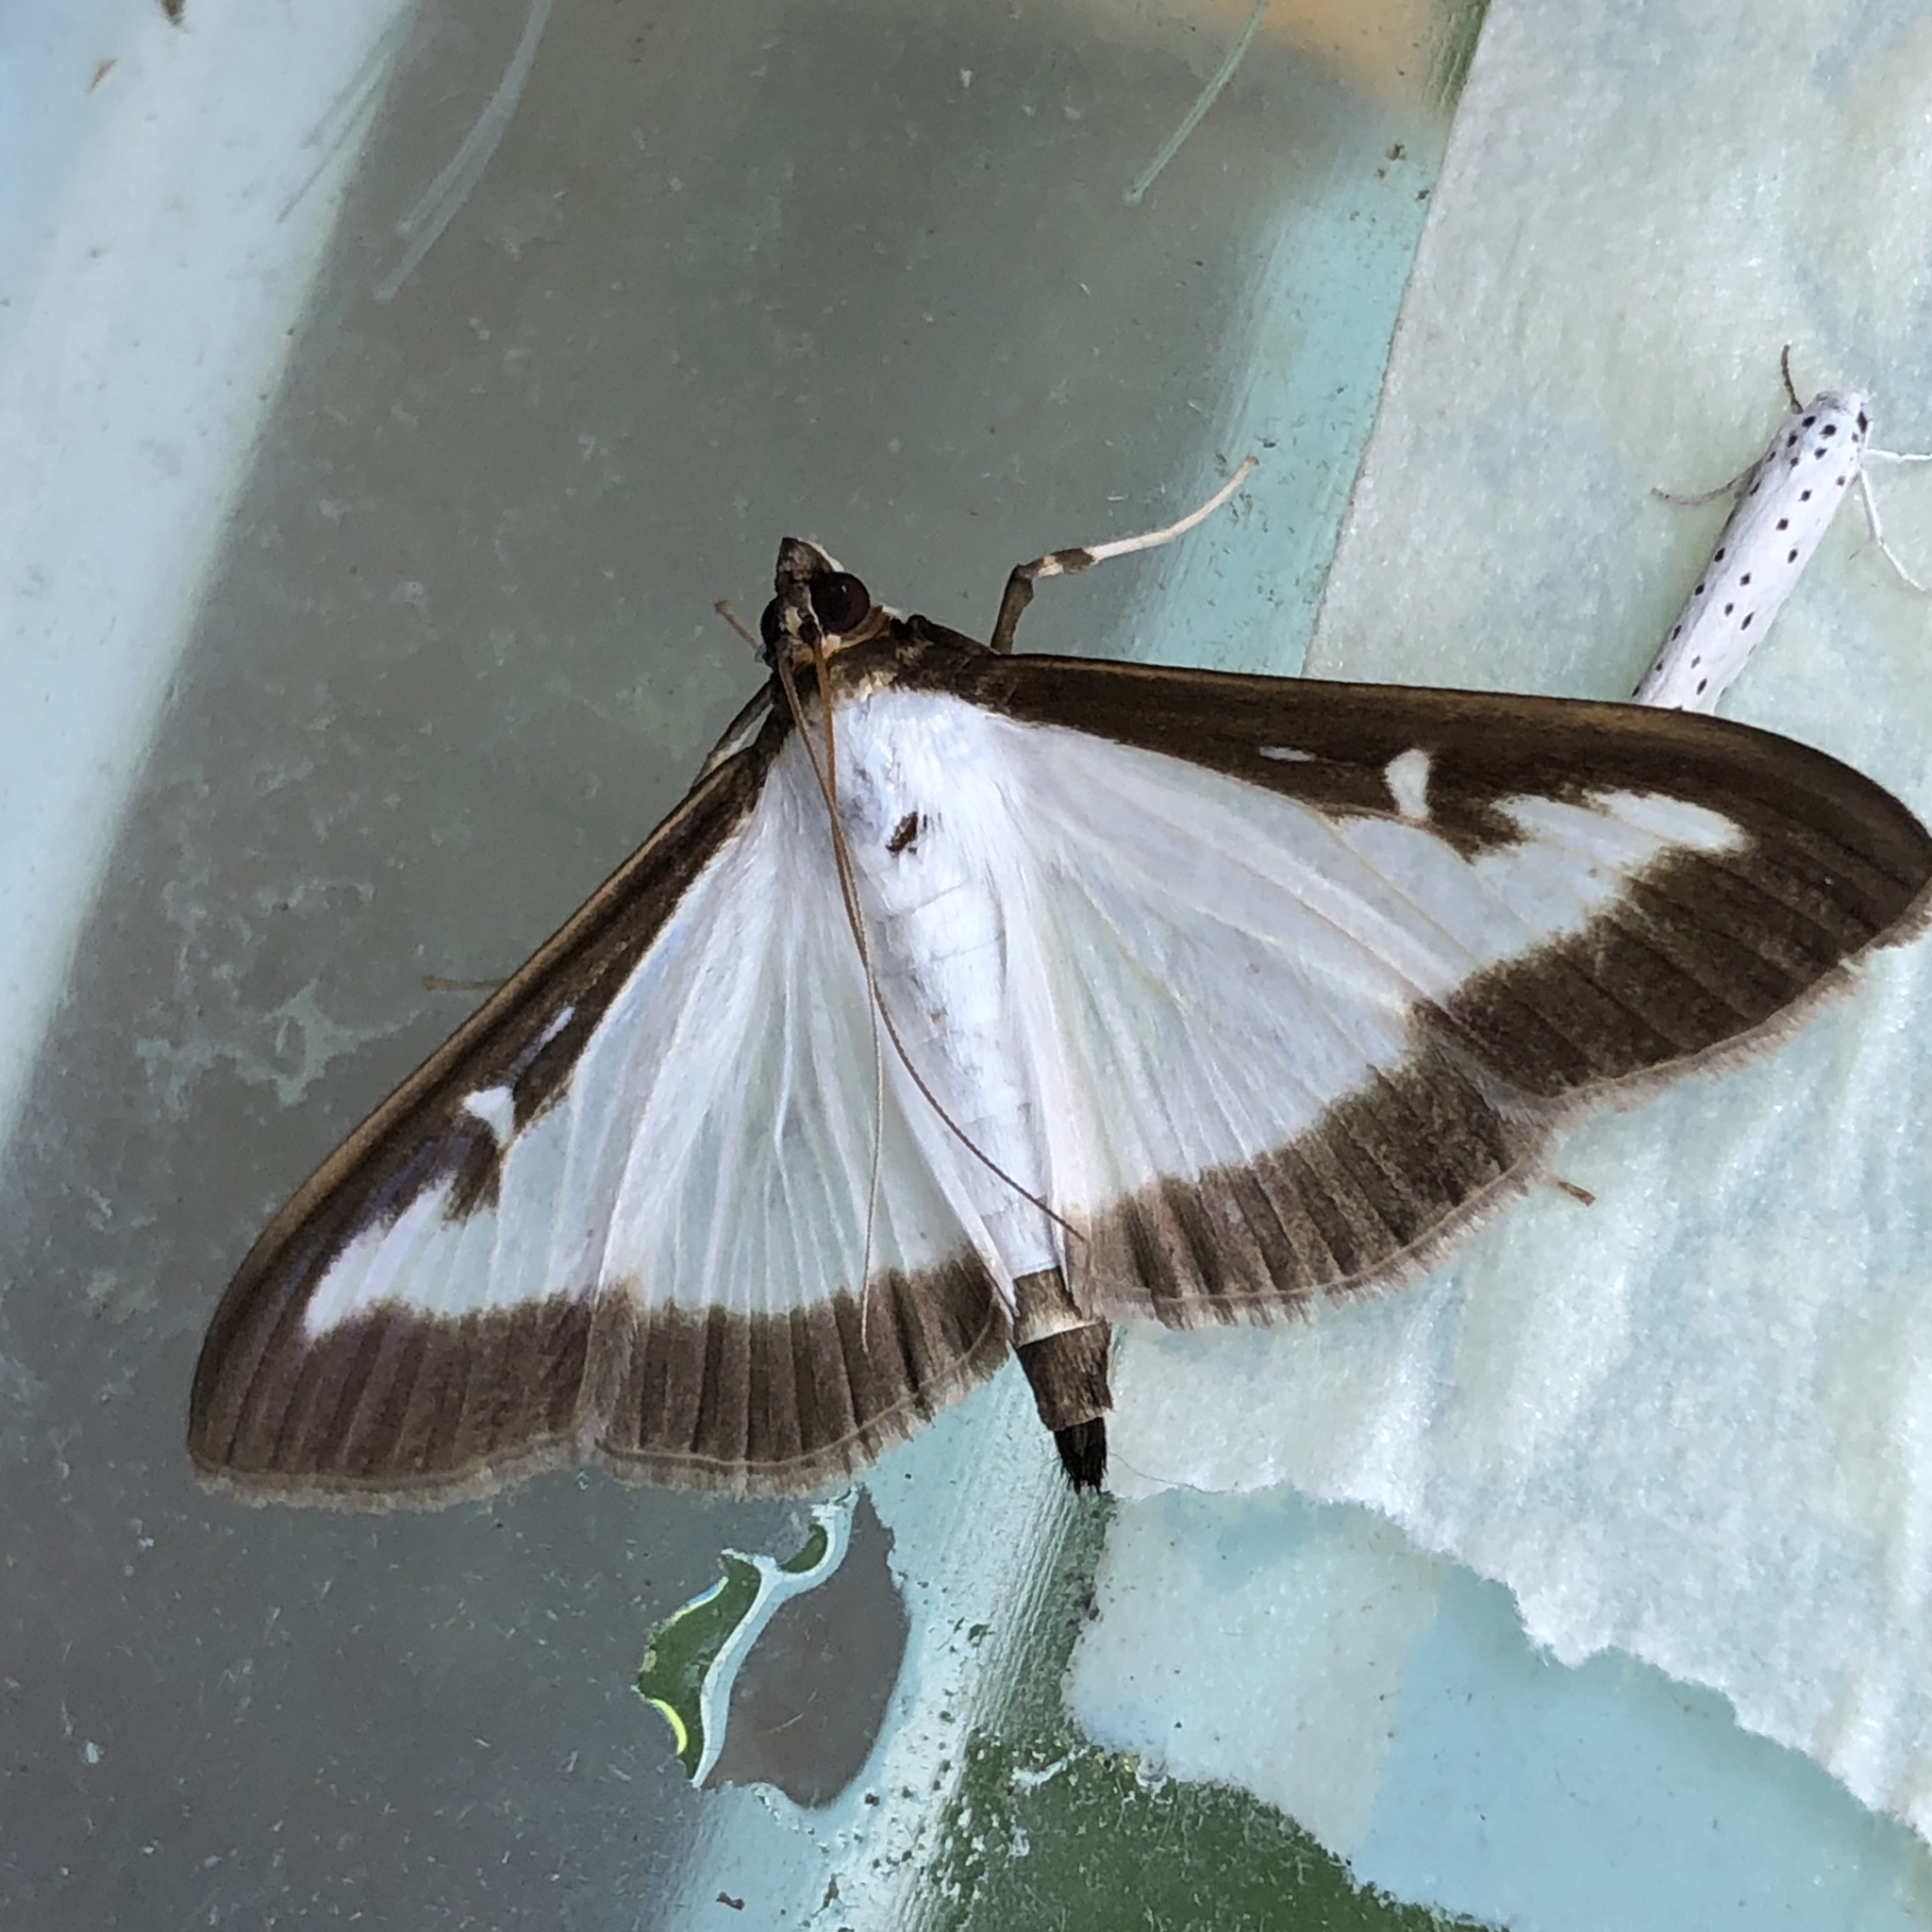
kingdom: Animalia
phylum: Arthropoda
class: Insecta
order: Lepidoptera
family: Crambidae
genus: Cydalima
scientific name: Cydalima perspectalis
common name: Box tree moth
